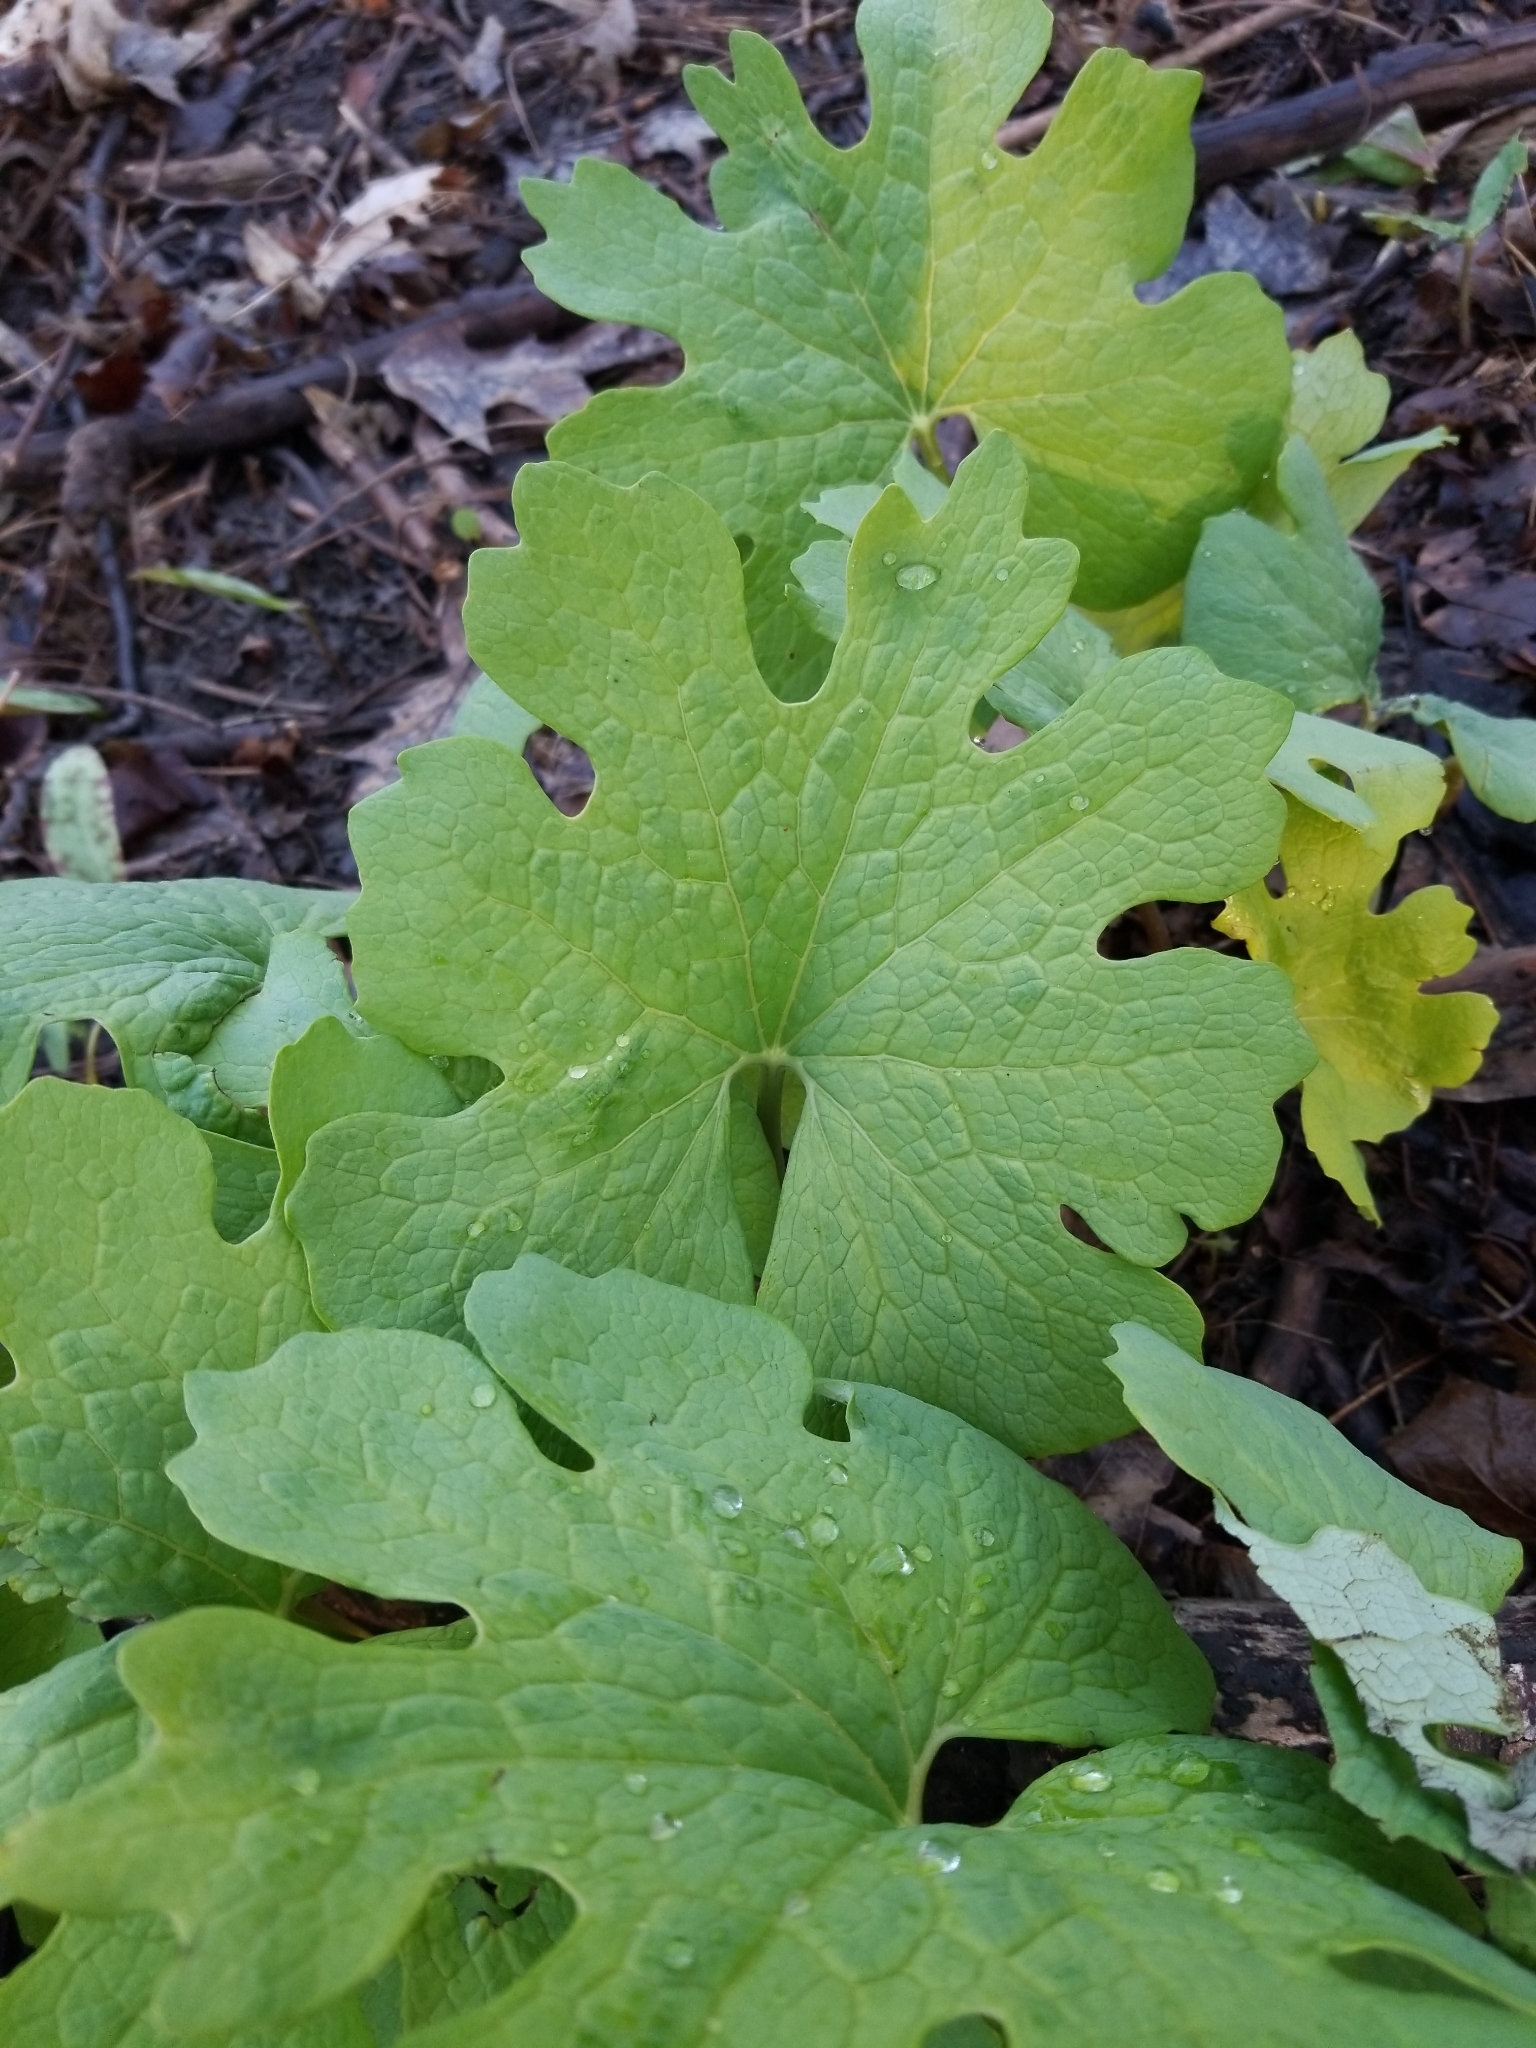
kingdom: Plantae
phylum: Tracheophyta
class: Magnoliopsida
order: Ranunculales
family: Papaveraceae
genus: Sanguinaria
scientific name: Sanguinaria canadensis
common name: Bloodroot
